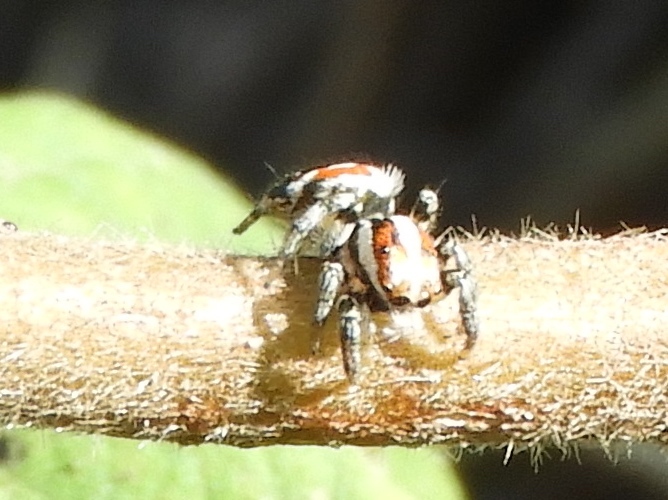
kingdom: Animalia
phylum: Arthropoda
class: Arachnida
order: Araneae
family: Salticidae
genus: Nycerella
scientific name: Nycerella delecta
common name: Jumping spiders
